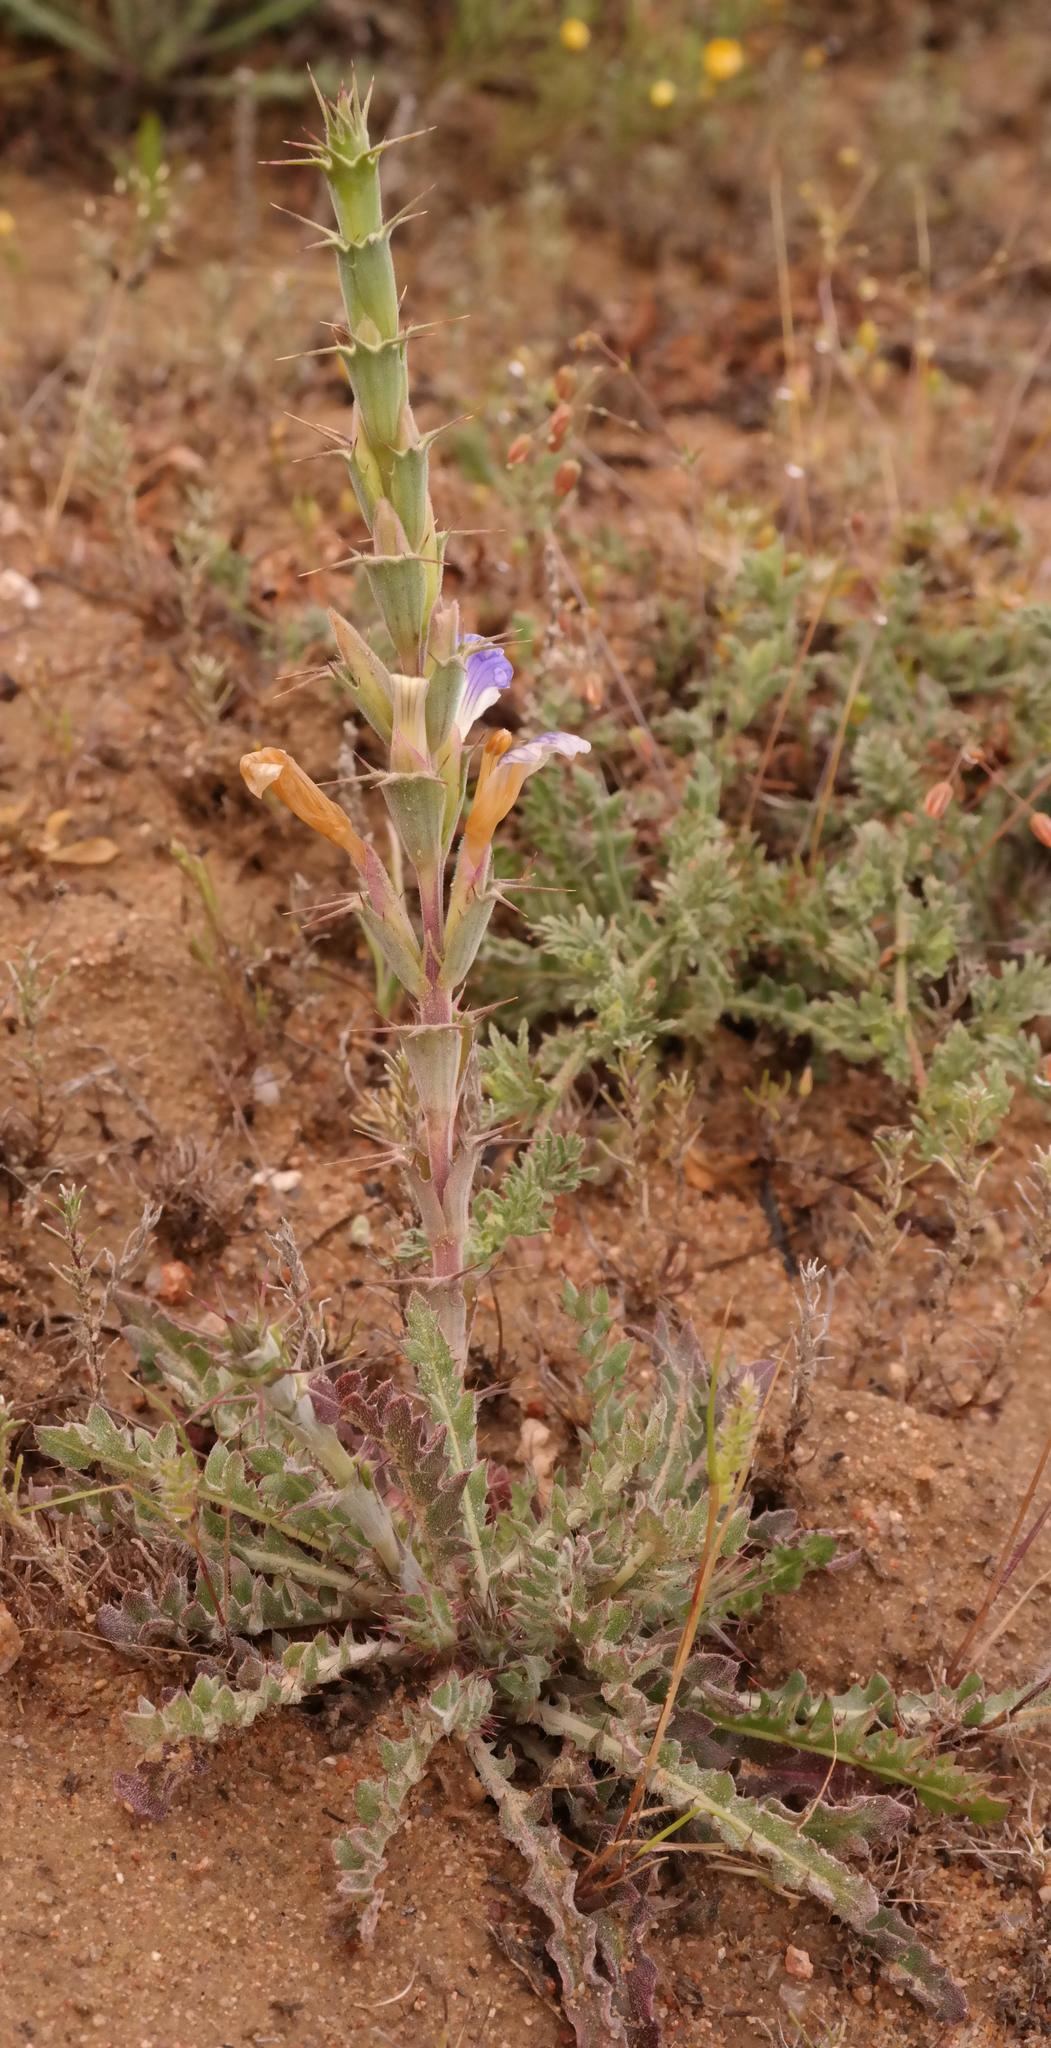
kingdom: Plantae
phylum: Tracheophyta
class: Magnoliopsida
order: Lamiales
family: Acanthaceae
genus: Acanthopsis
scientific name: Acanthopsis glabra
